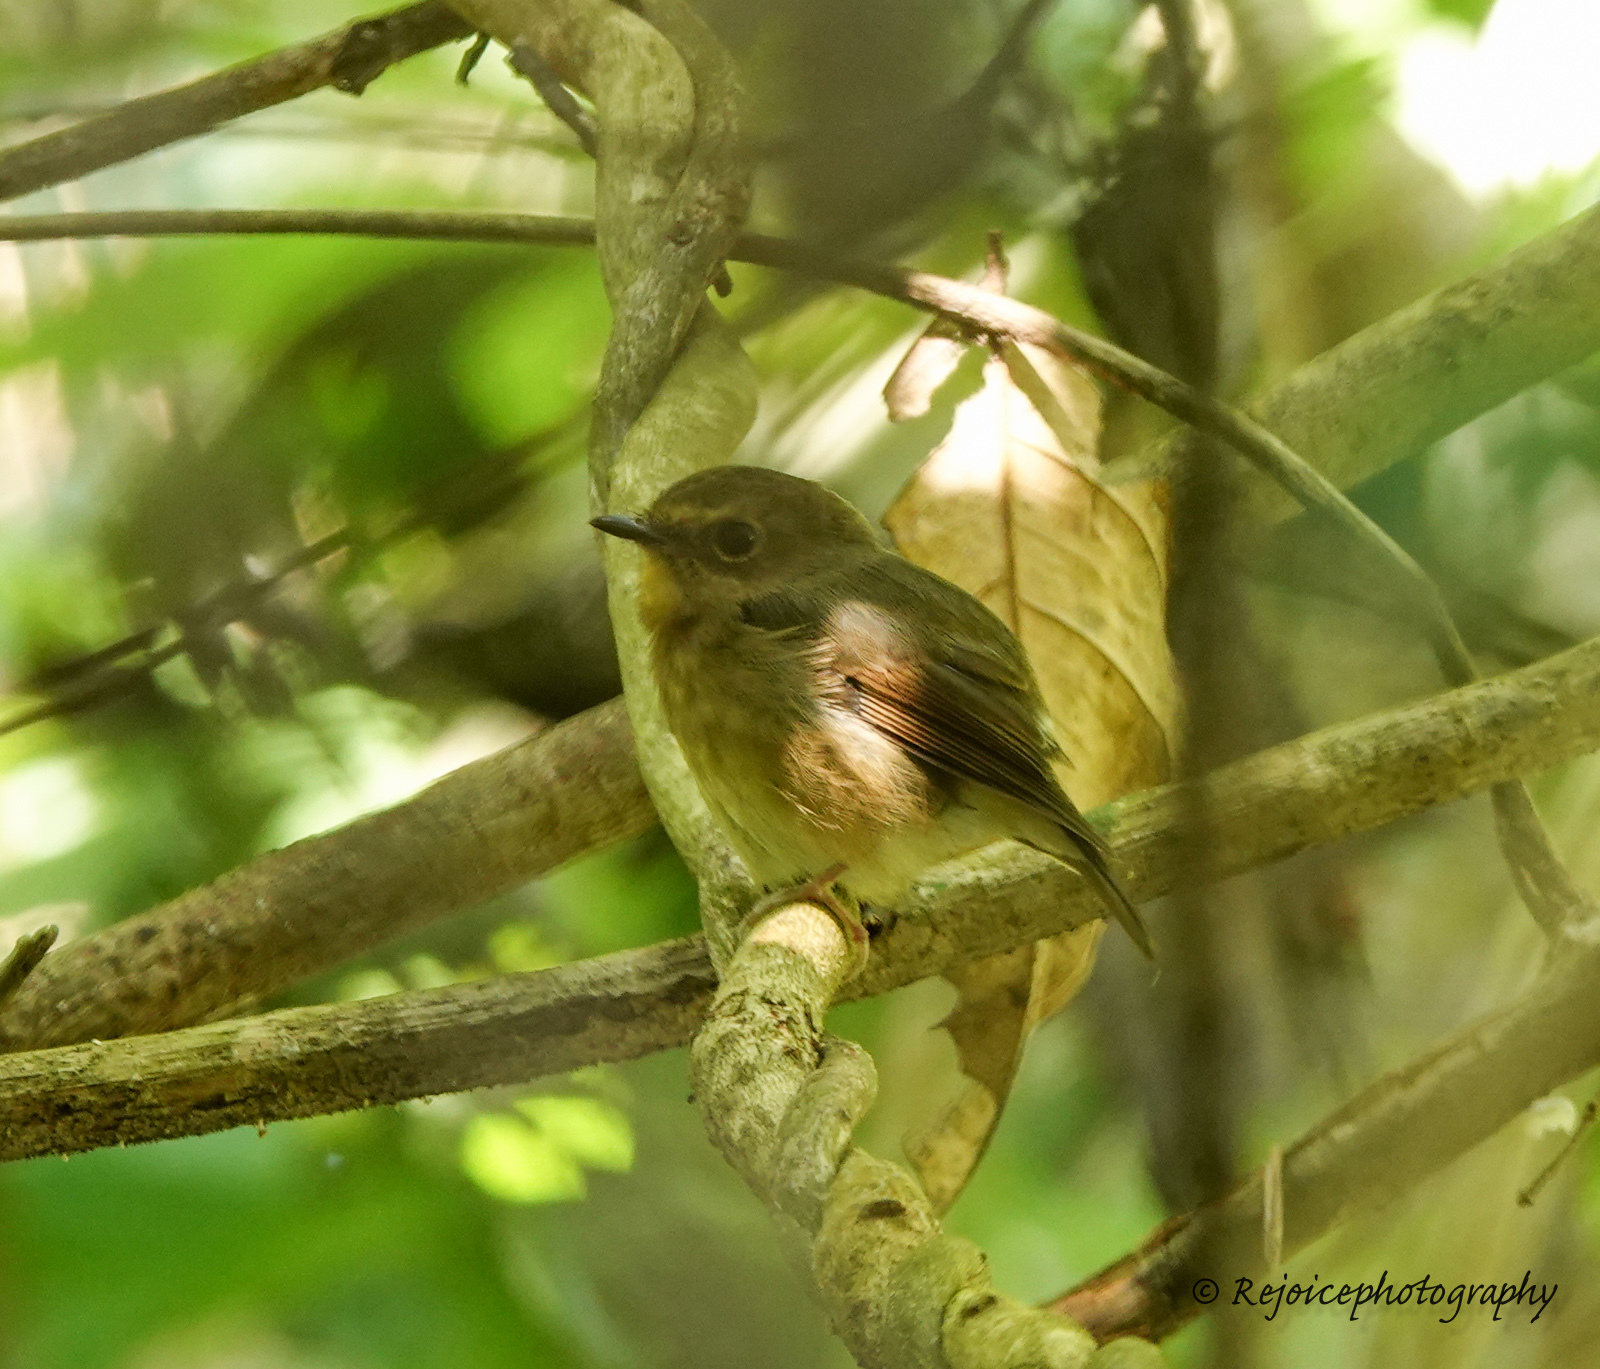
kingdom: Animalia
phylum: Chordata
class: Aves
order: Passeriformes
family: Muscicapidae
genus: Ficedula
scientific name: Ficedula hyperythra
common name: Snowy-browed flycatcher
